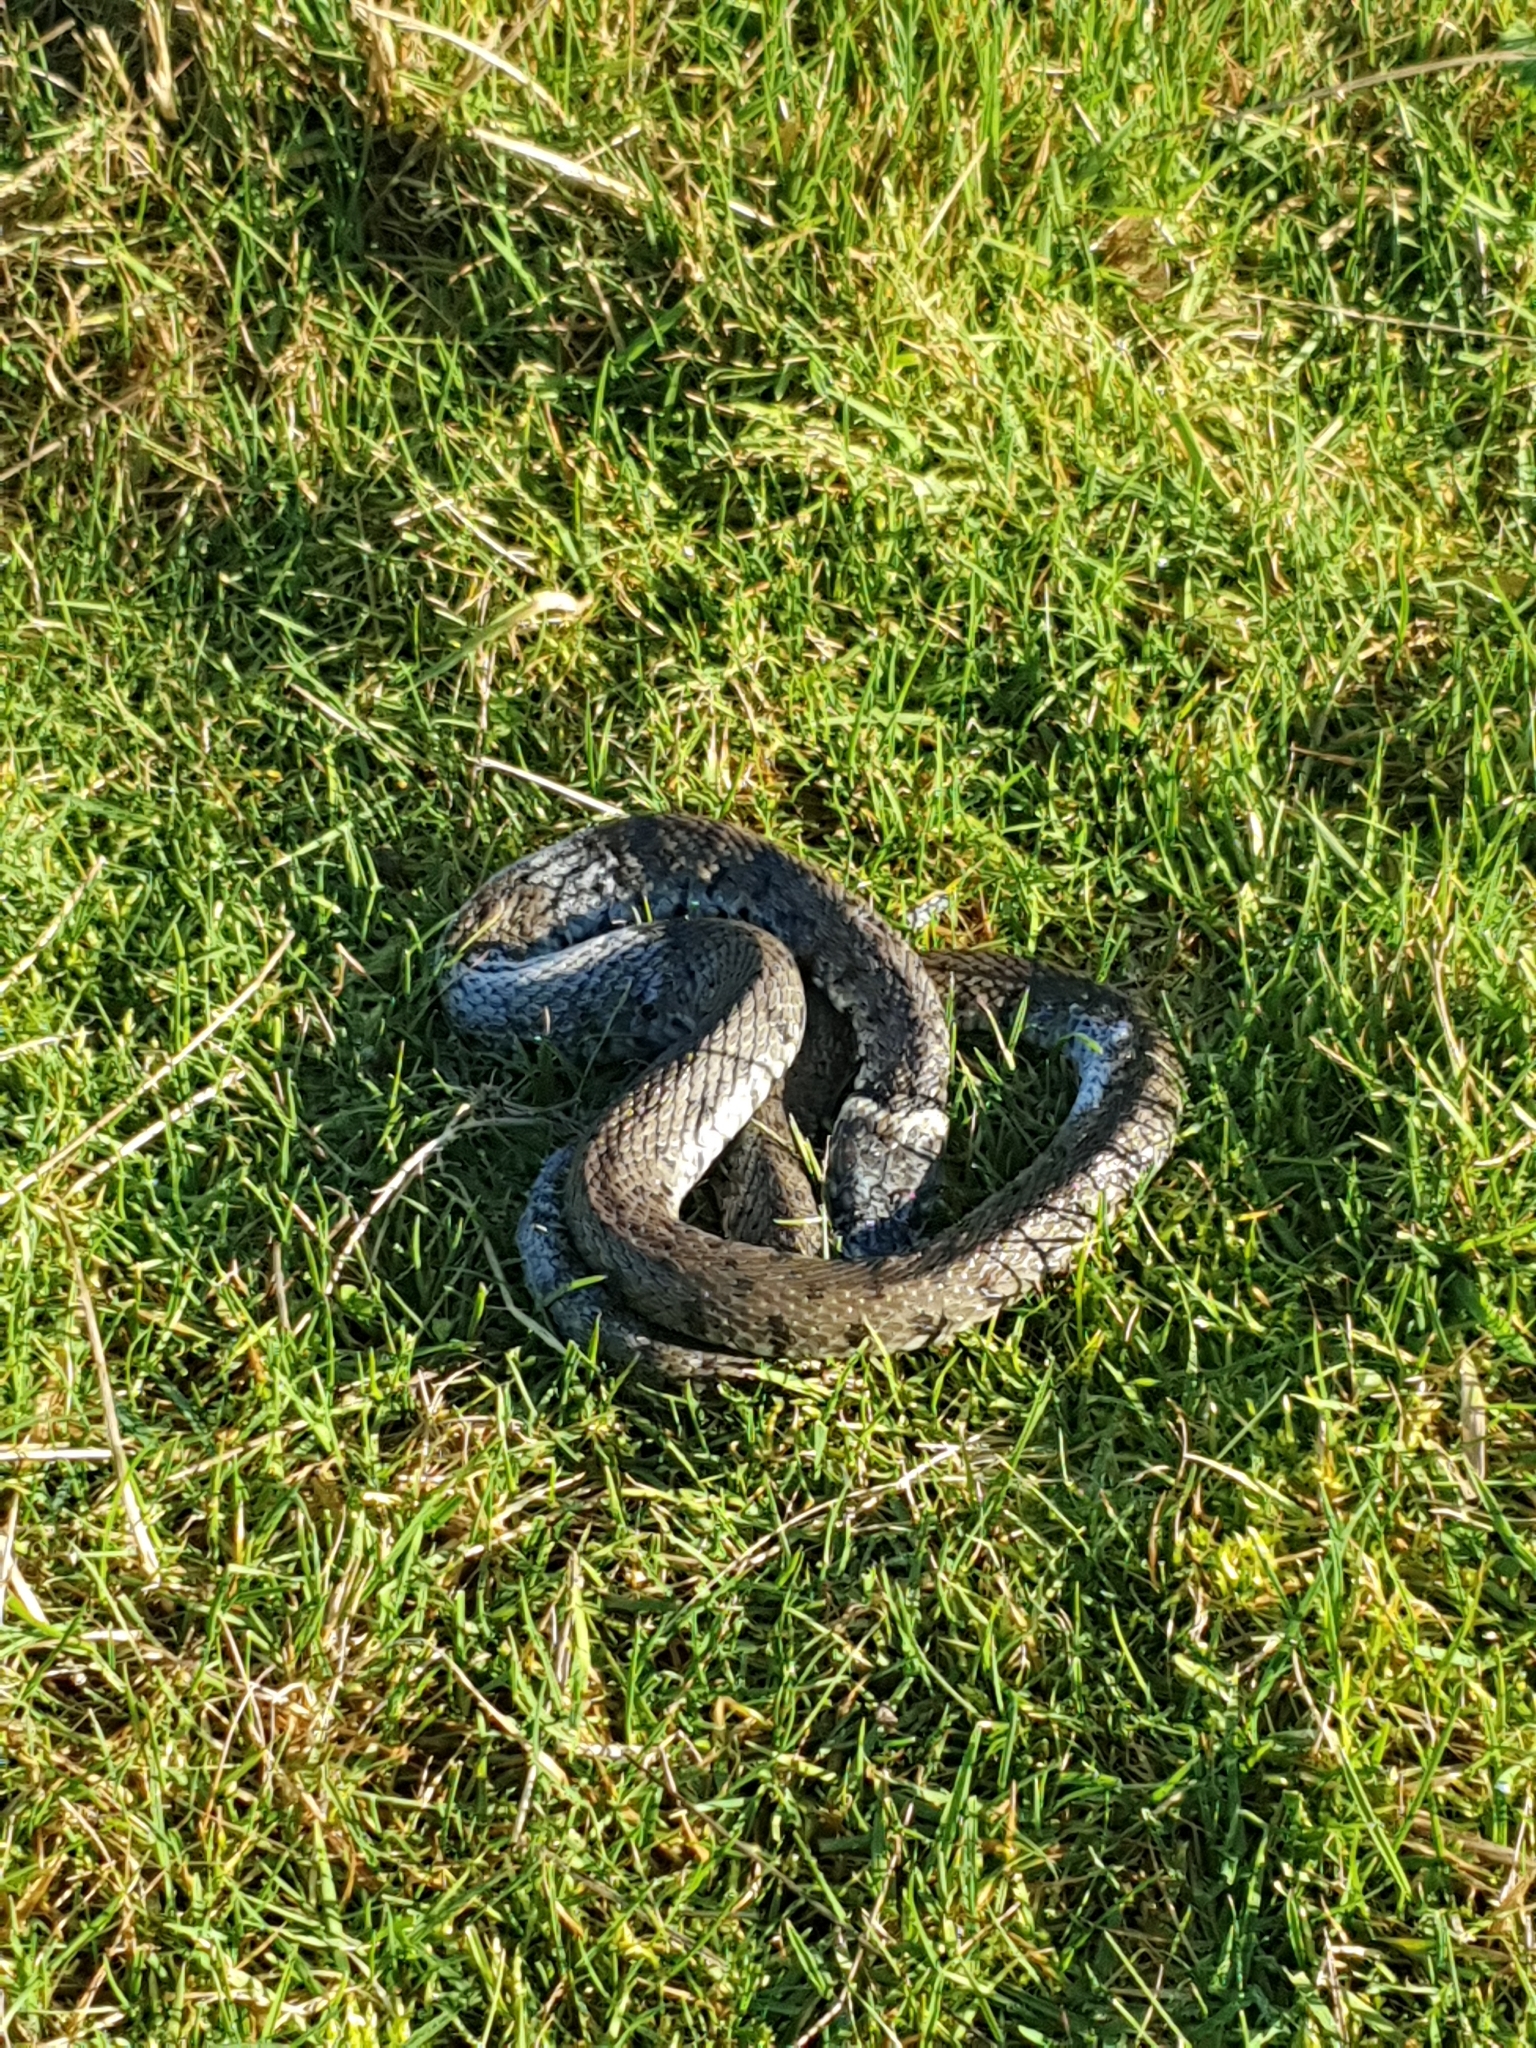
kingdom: Animalia
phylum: Chordata
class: Squamata
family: Colubridae
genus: Natrix
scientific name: Natrix helvetica
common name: Banded grass snake
